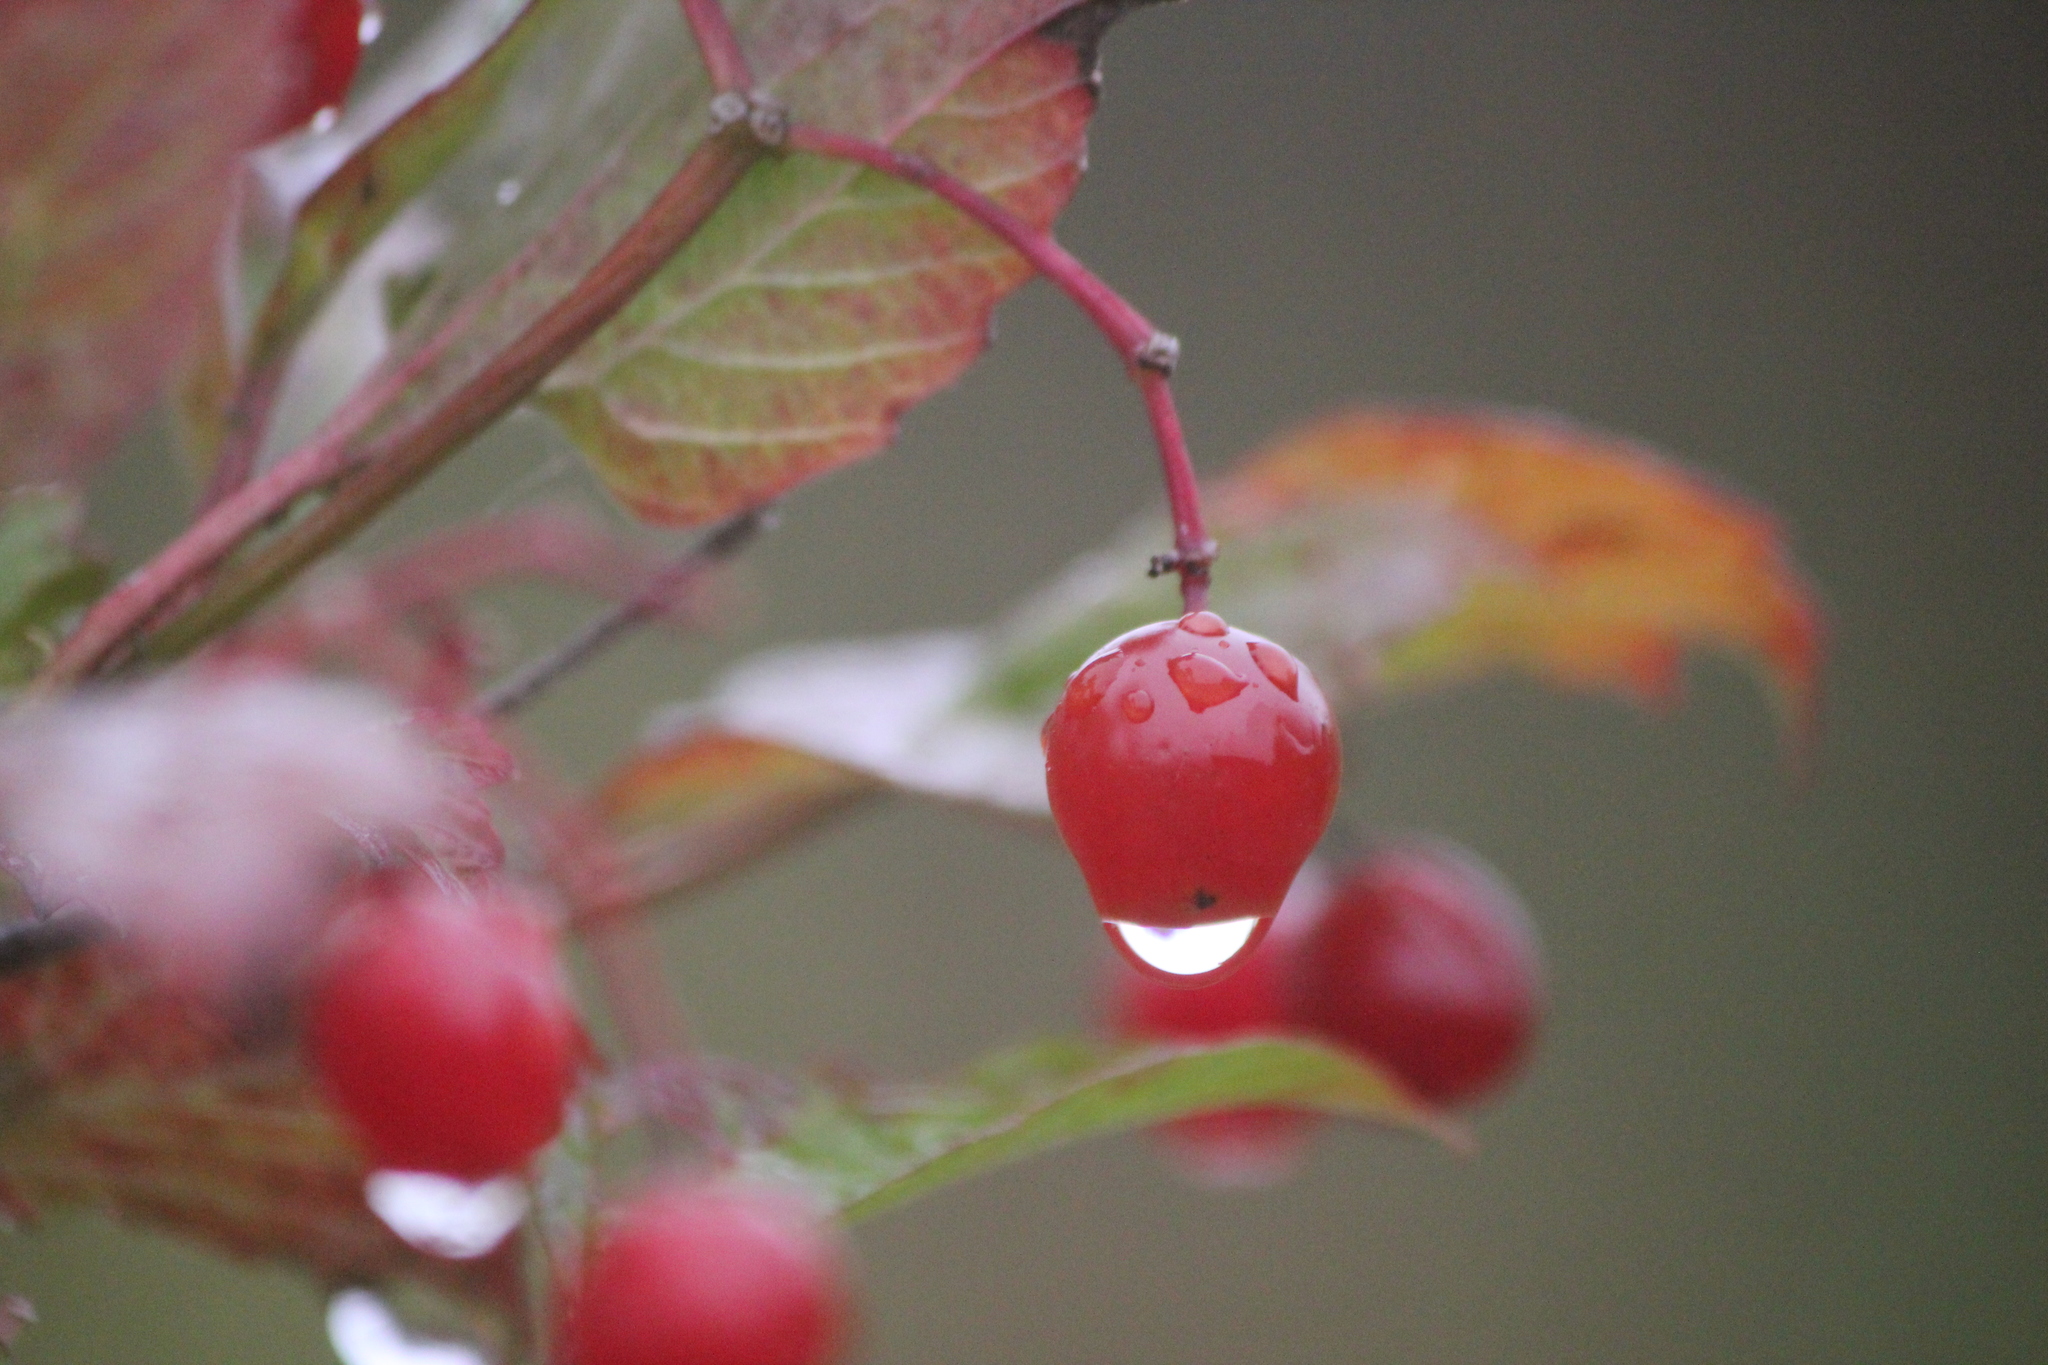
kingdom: Plantae
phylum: Tracheophyta
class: Magnoliopsida
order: Dipsacales
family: Viburnaceae
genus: Viburnum
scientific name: Viburnum opulus
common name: Guelder-rose
